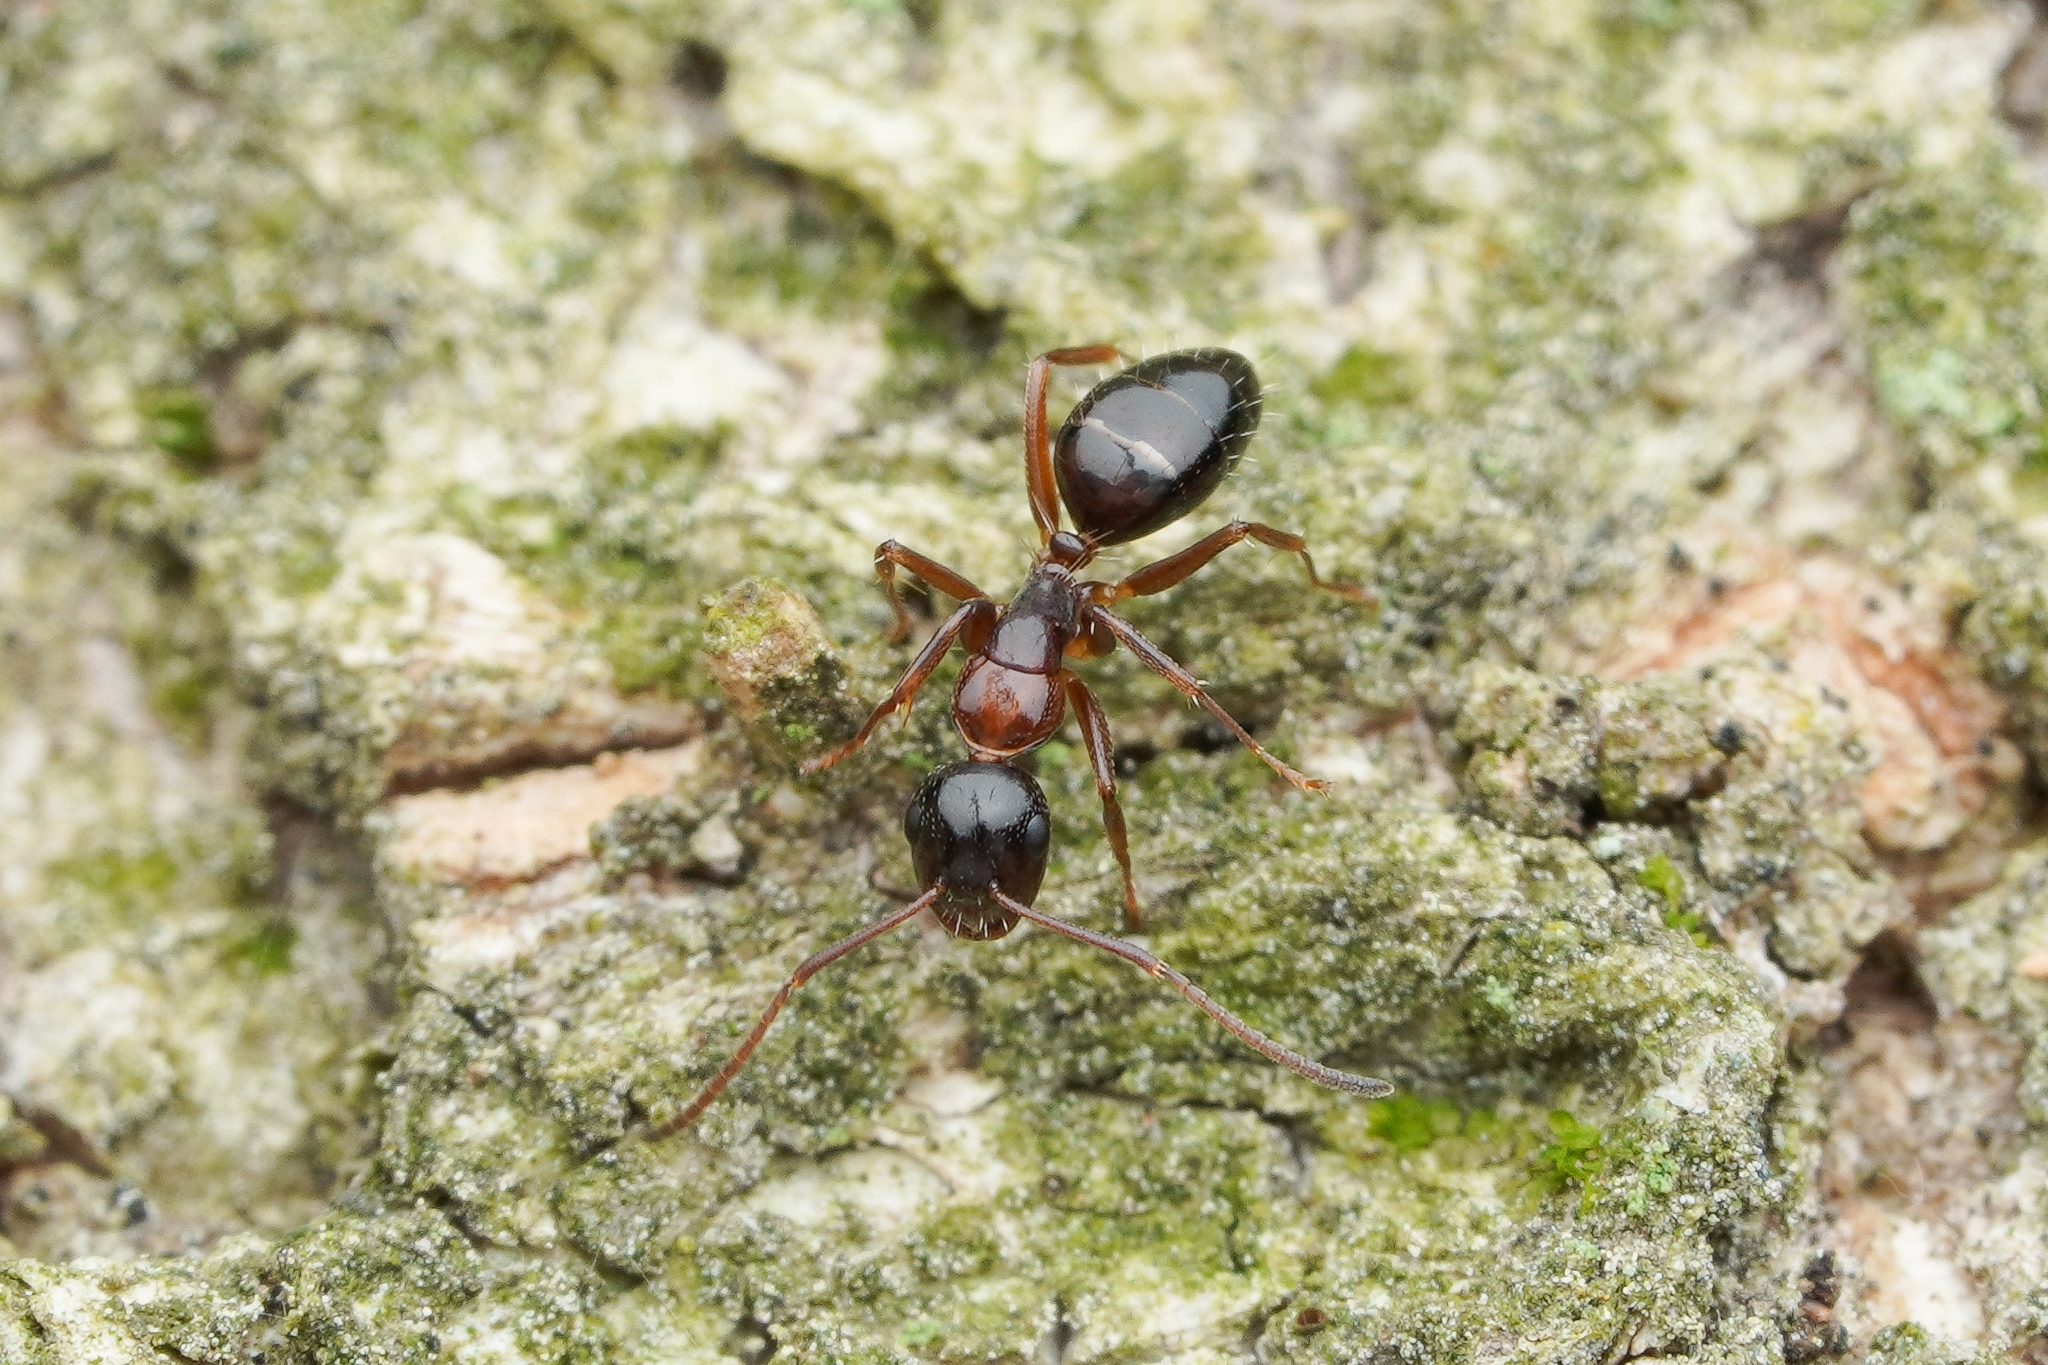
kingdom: Animalia
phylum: Arthropoda
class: Insecta
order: Hymenoptera
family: Formicidae
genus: Camponotus
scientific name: Camponotus vitiosus
